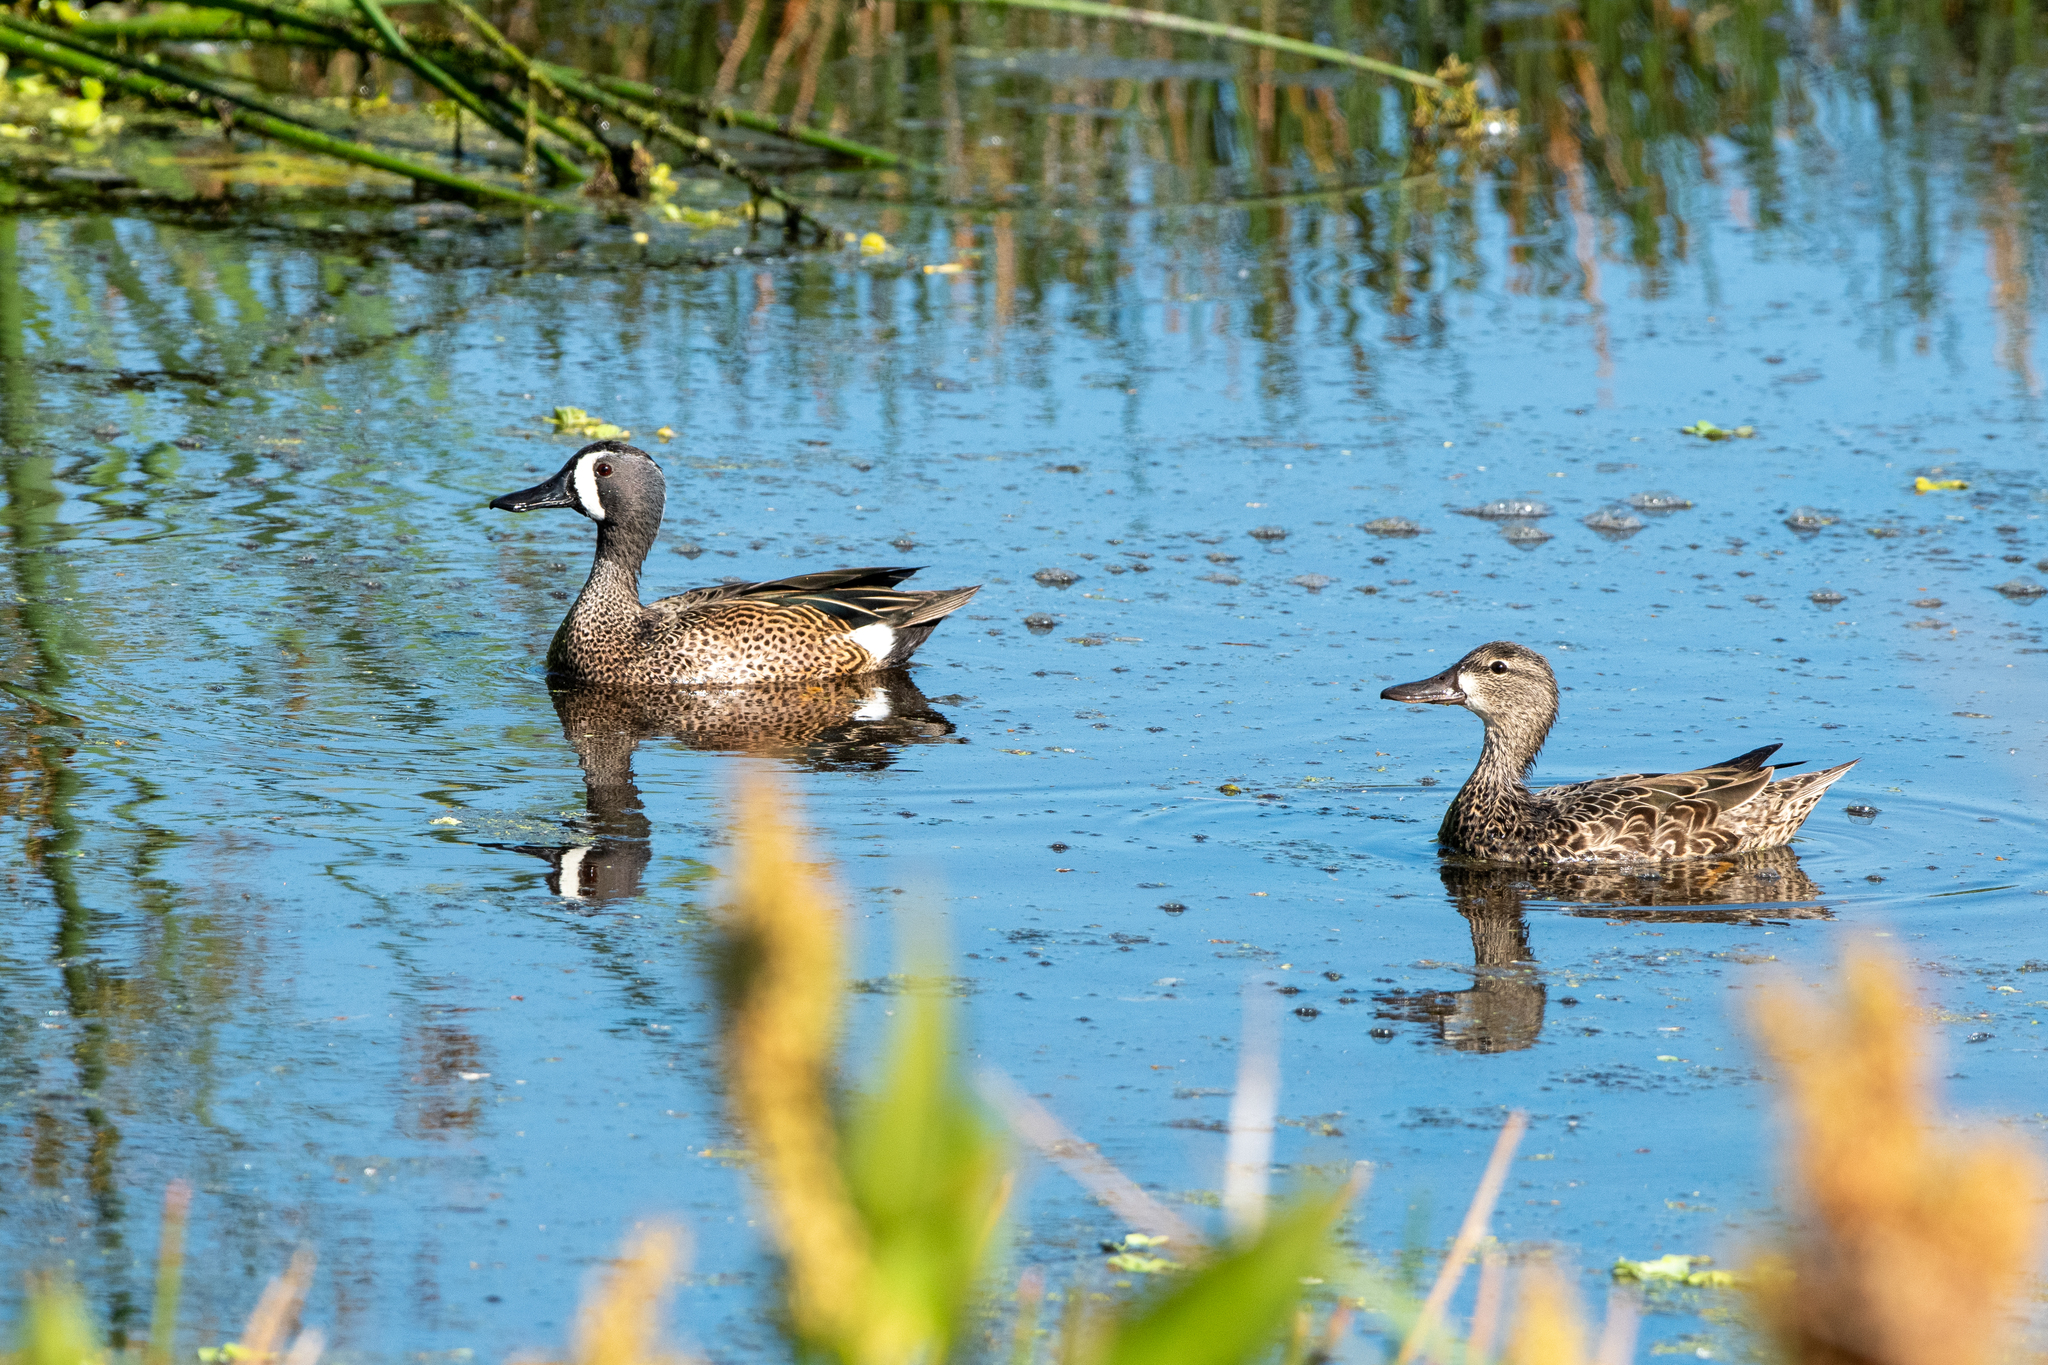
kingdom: Animalia
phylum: Chordata
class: Aves
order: Anseriformes
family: Anatidae
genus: Spatula
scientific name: Spatula discors
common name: Blue-winged teal
